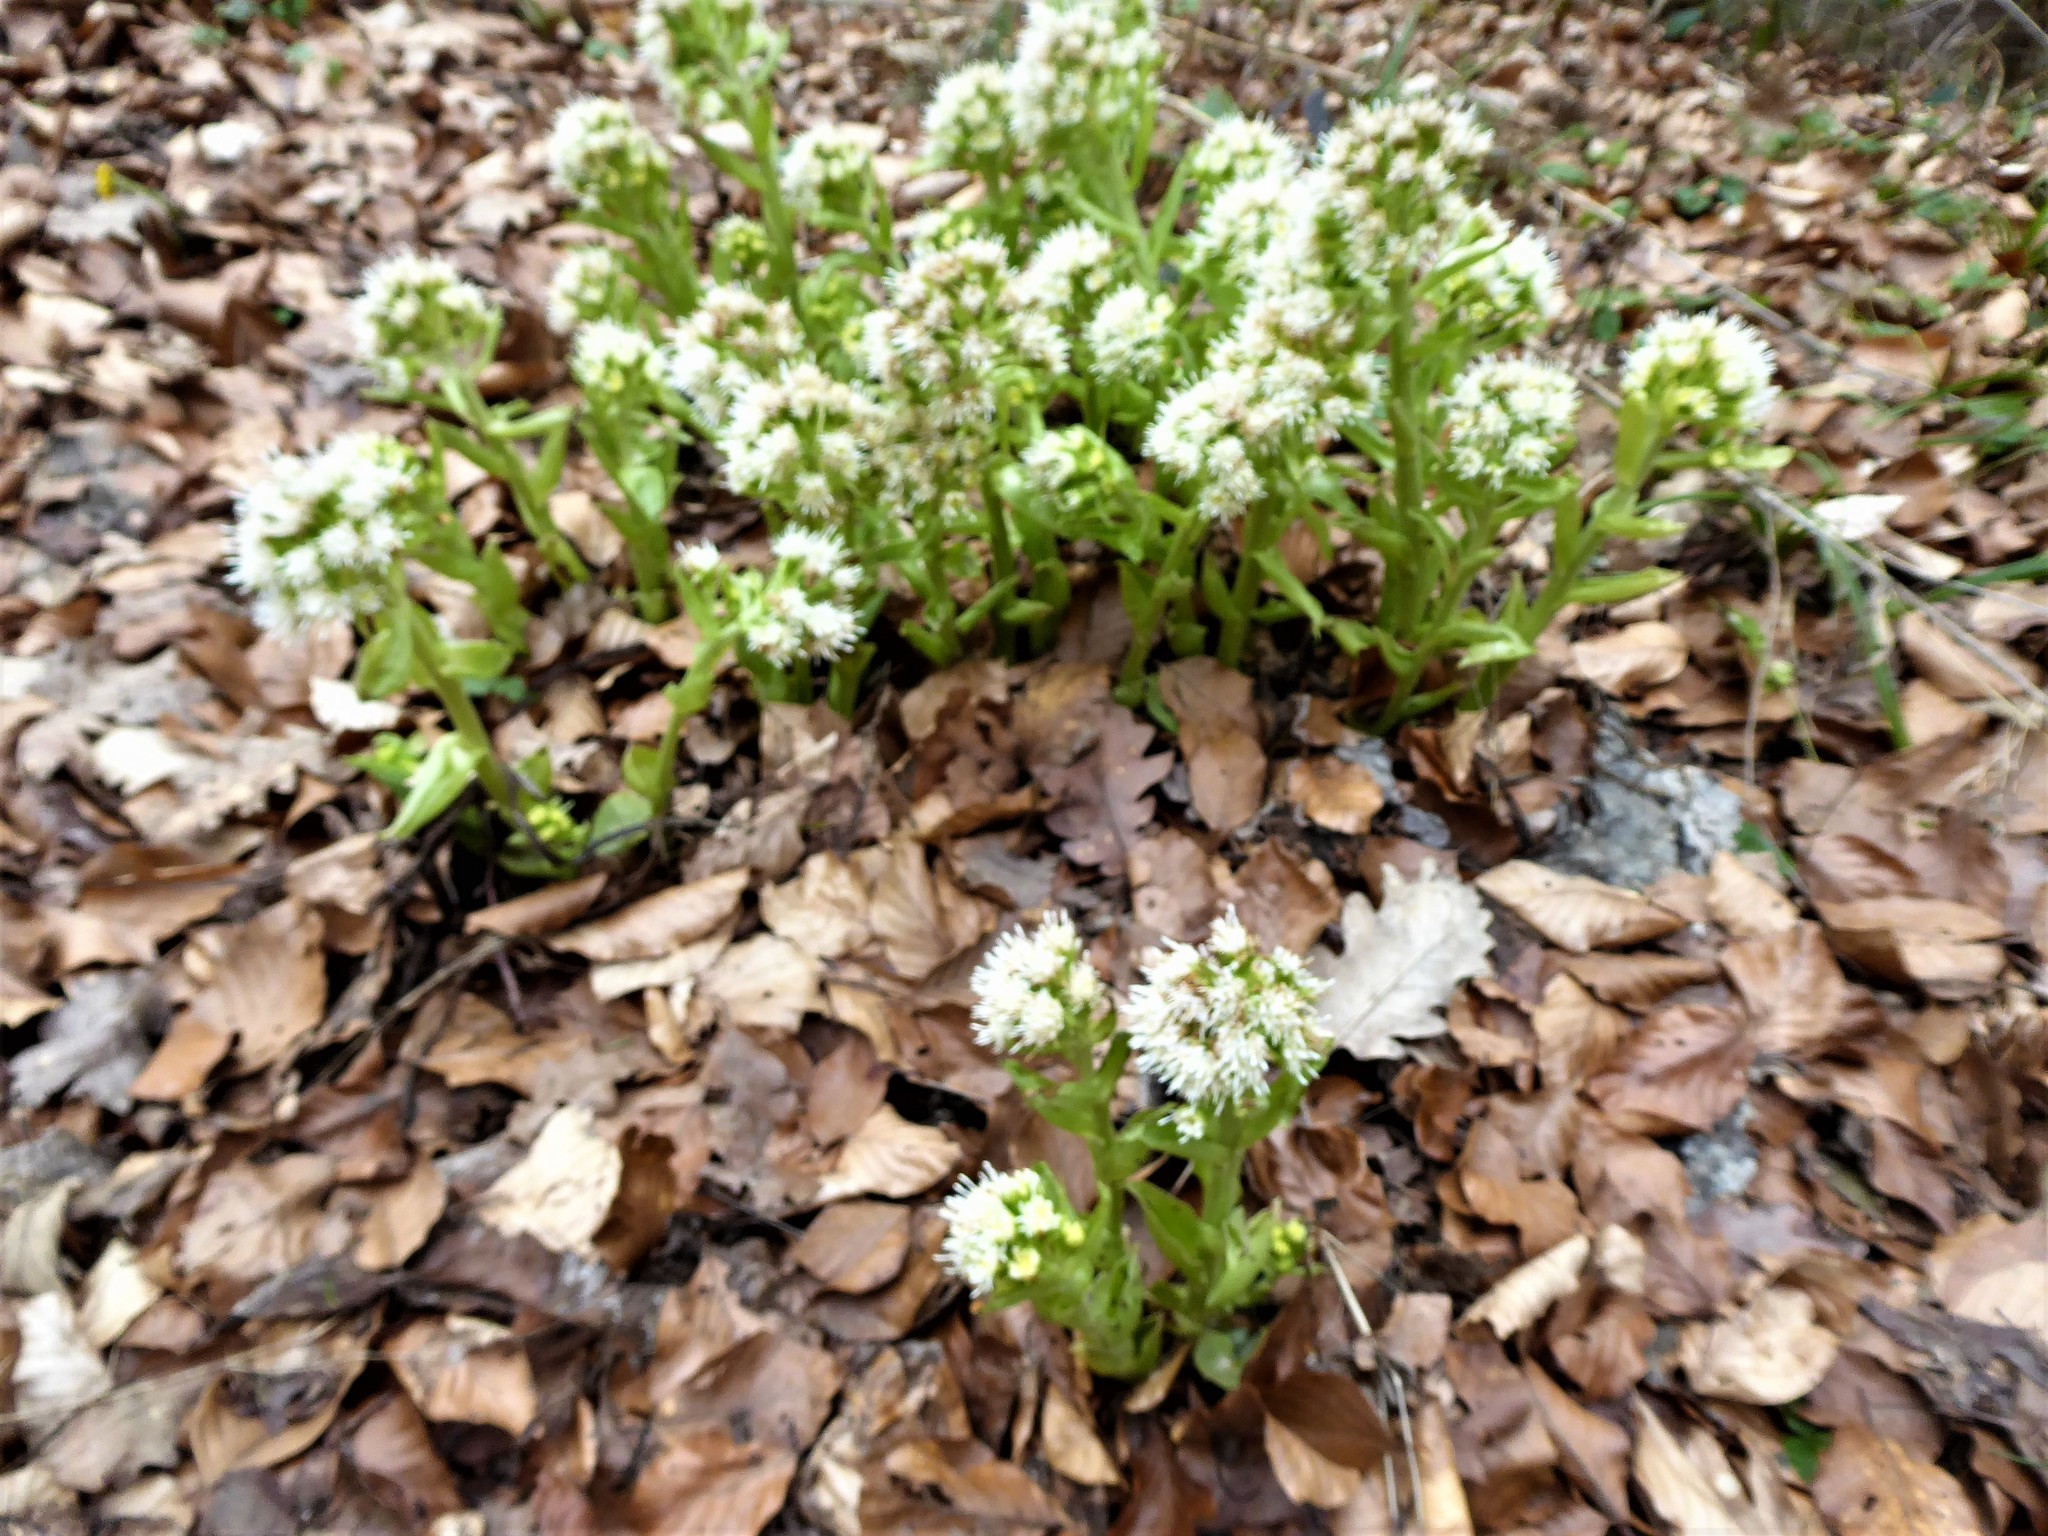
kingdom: Plantae
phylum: Tracheophyta
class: Magnoliopsida
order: Asterales
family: Asteraceae
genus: Petasites
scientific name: Petasites albus
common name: White butterbur
